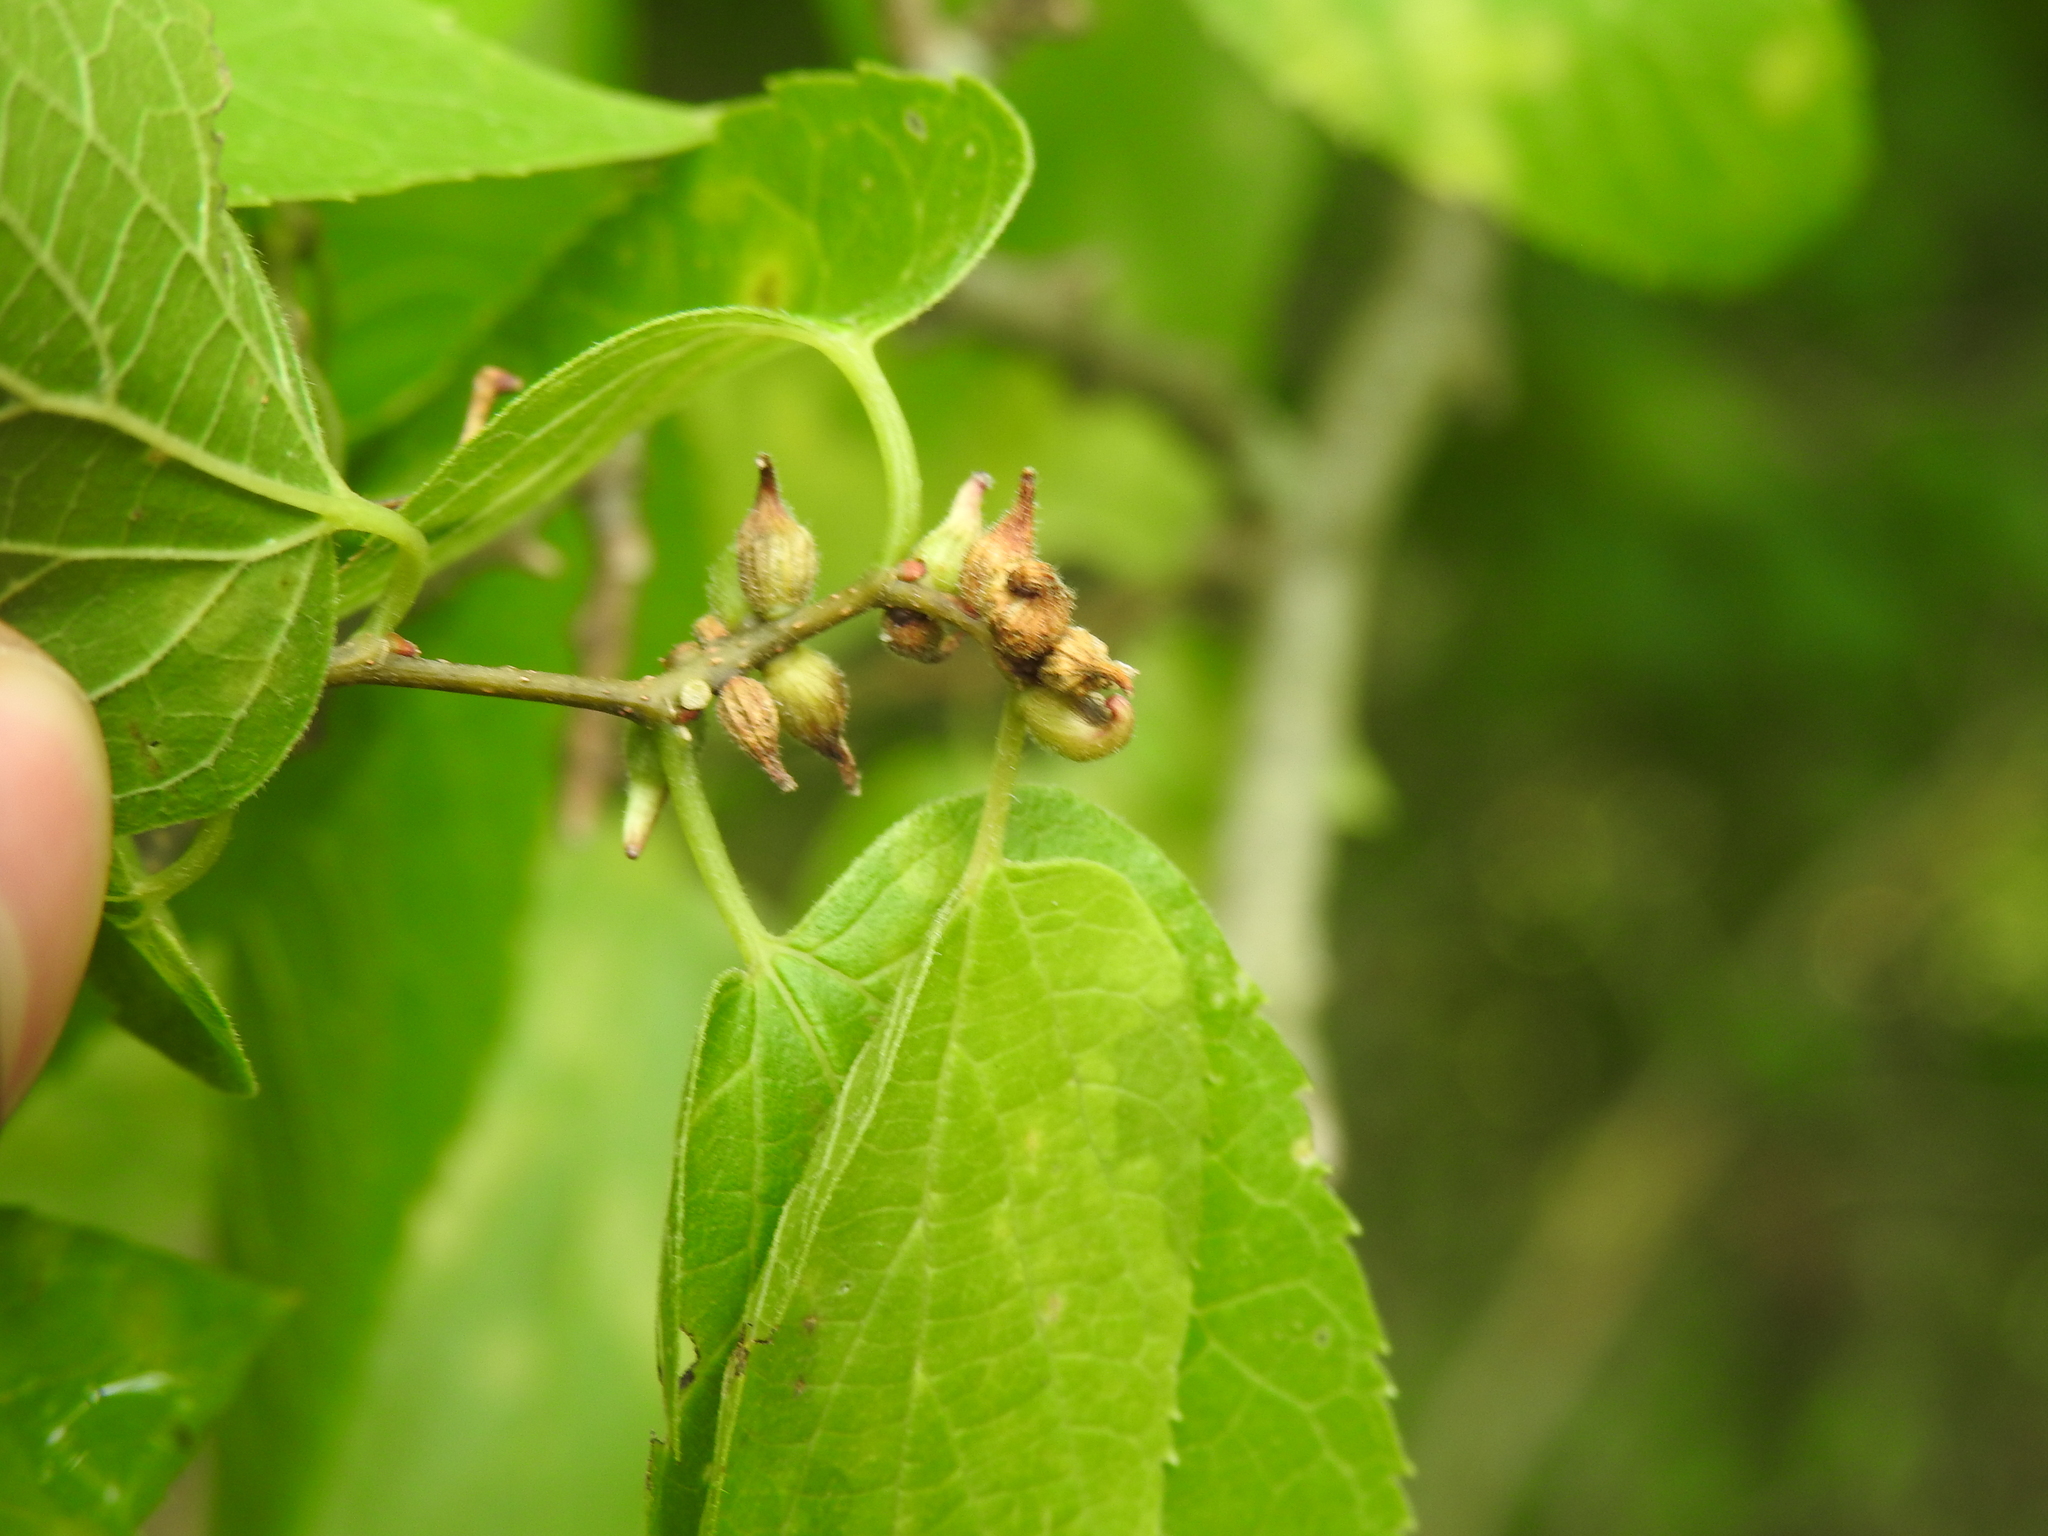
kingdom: Animalia
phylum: Arthropoda
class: Insecta
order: Diptera
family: Cecidomyiidae
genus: Celticecis
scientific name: Celticecis ovata
